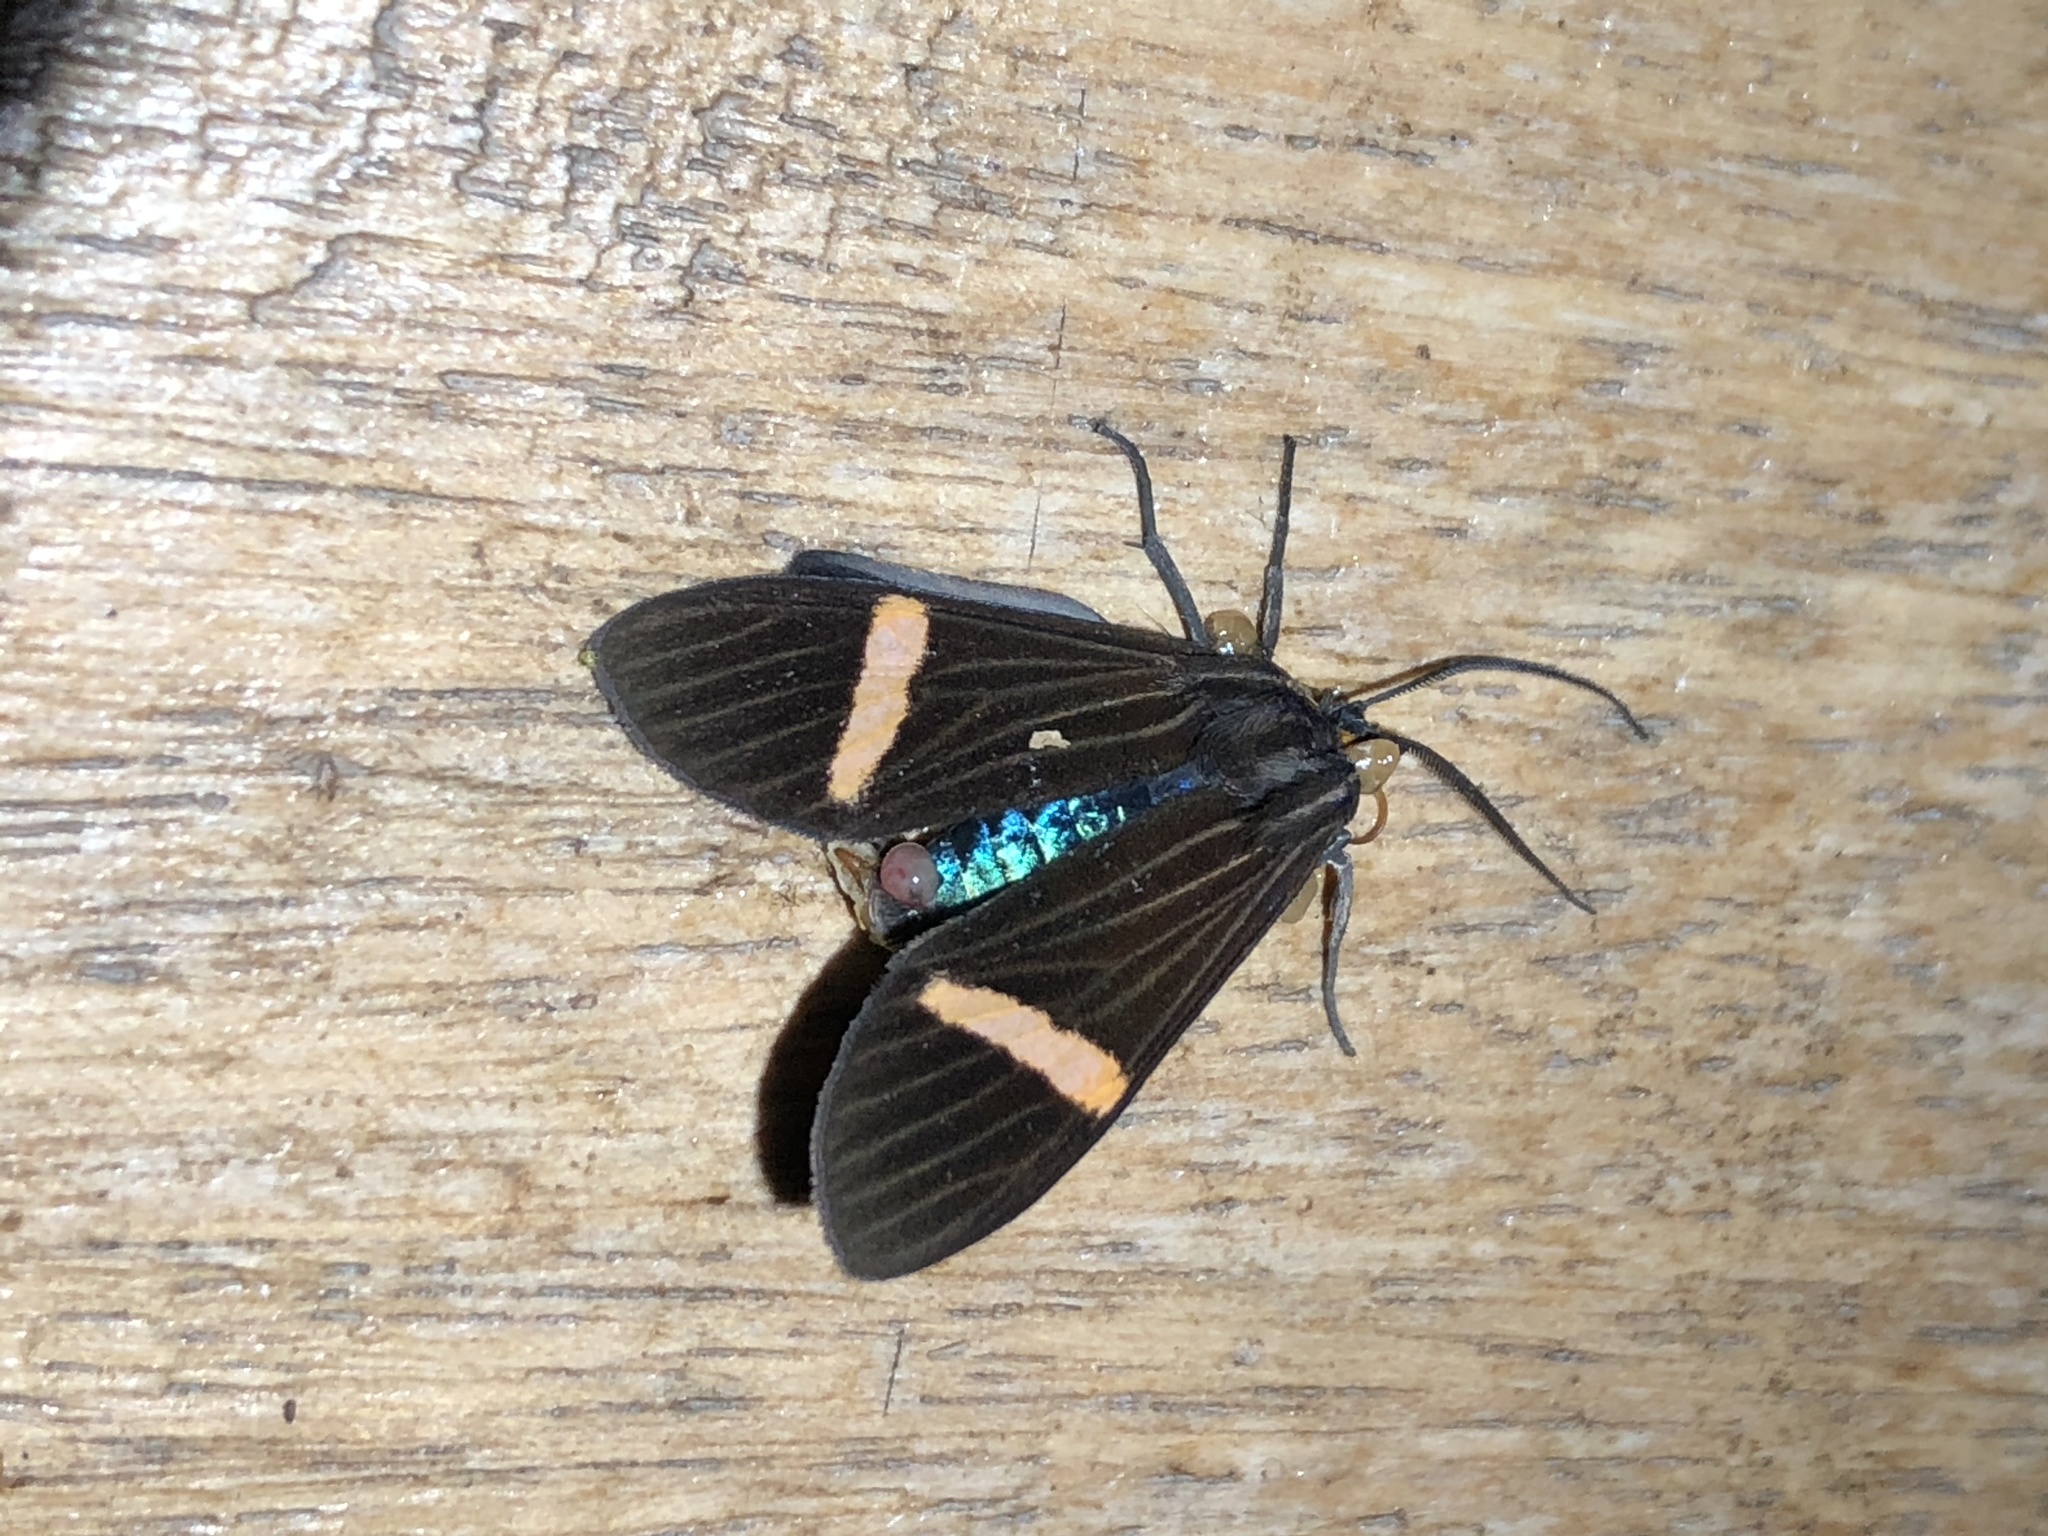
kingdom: Animalia
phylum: Arthropoda
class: Insecta
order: Lepidoptera
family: Erebidae
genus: Aclytia
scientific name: Aclytia gynamorpha
